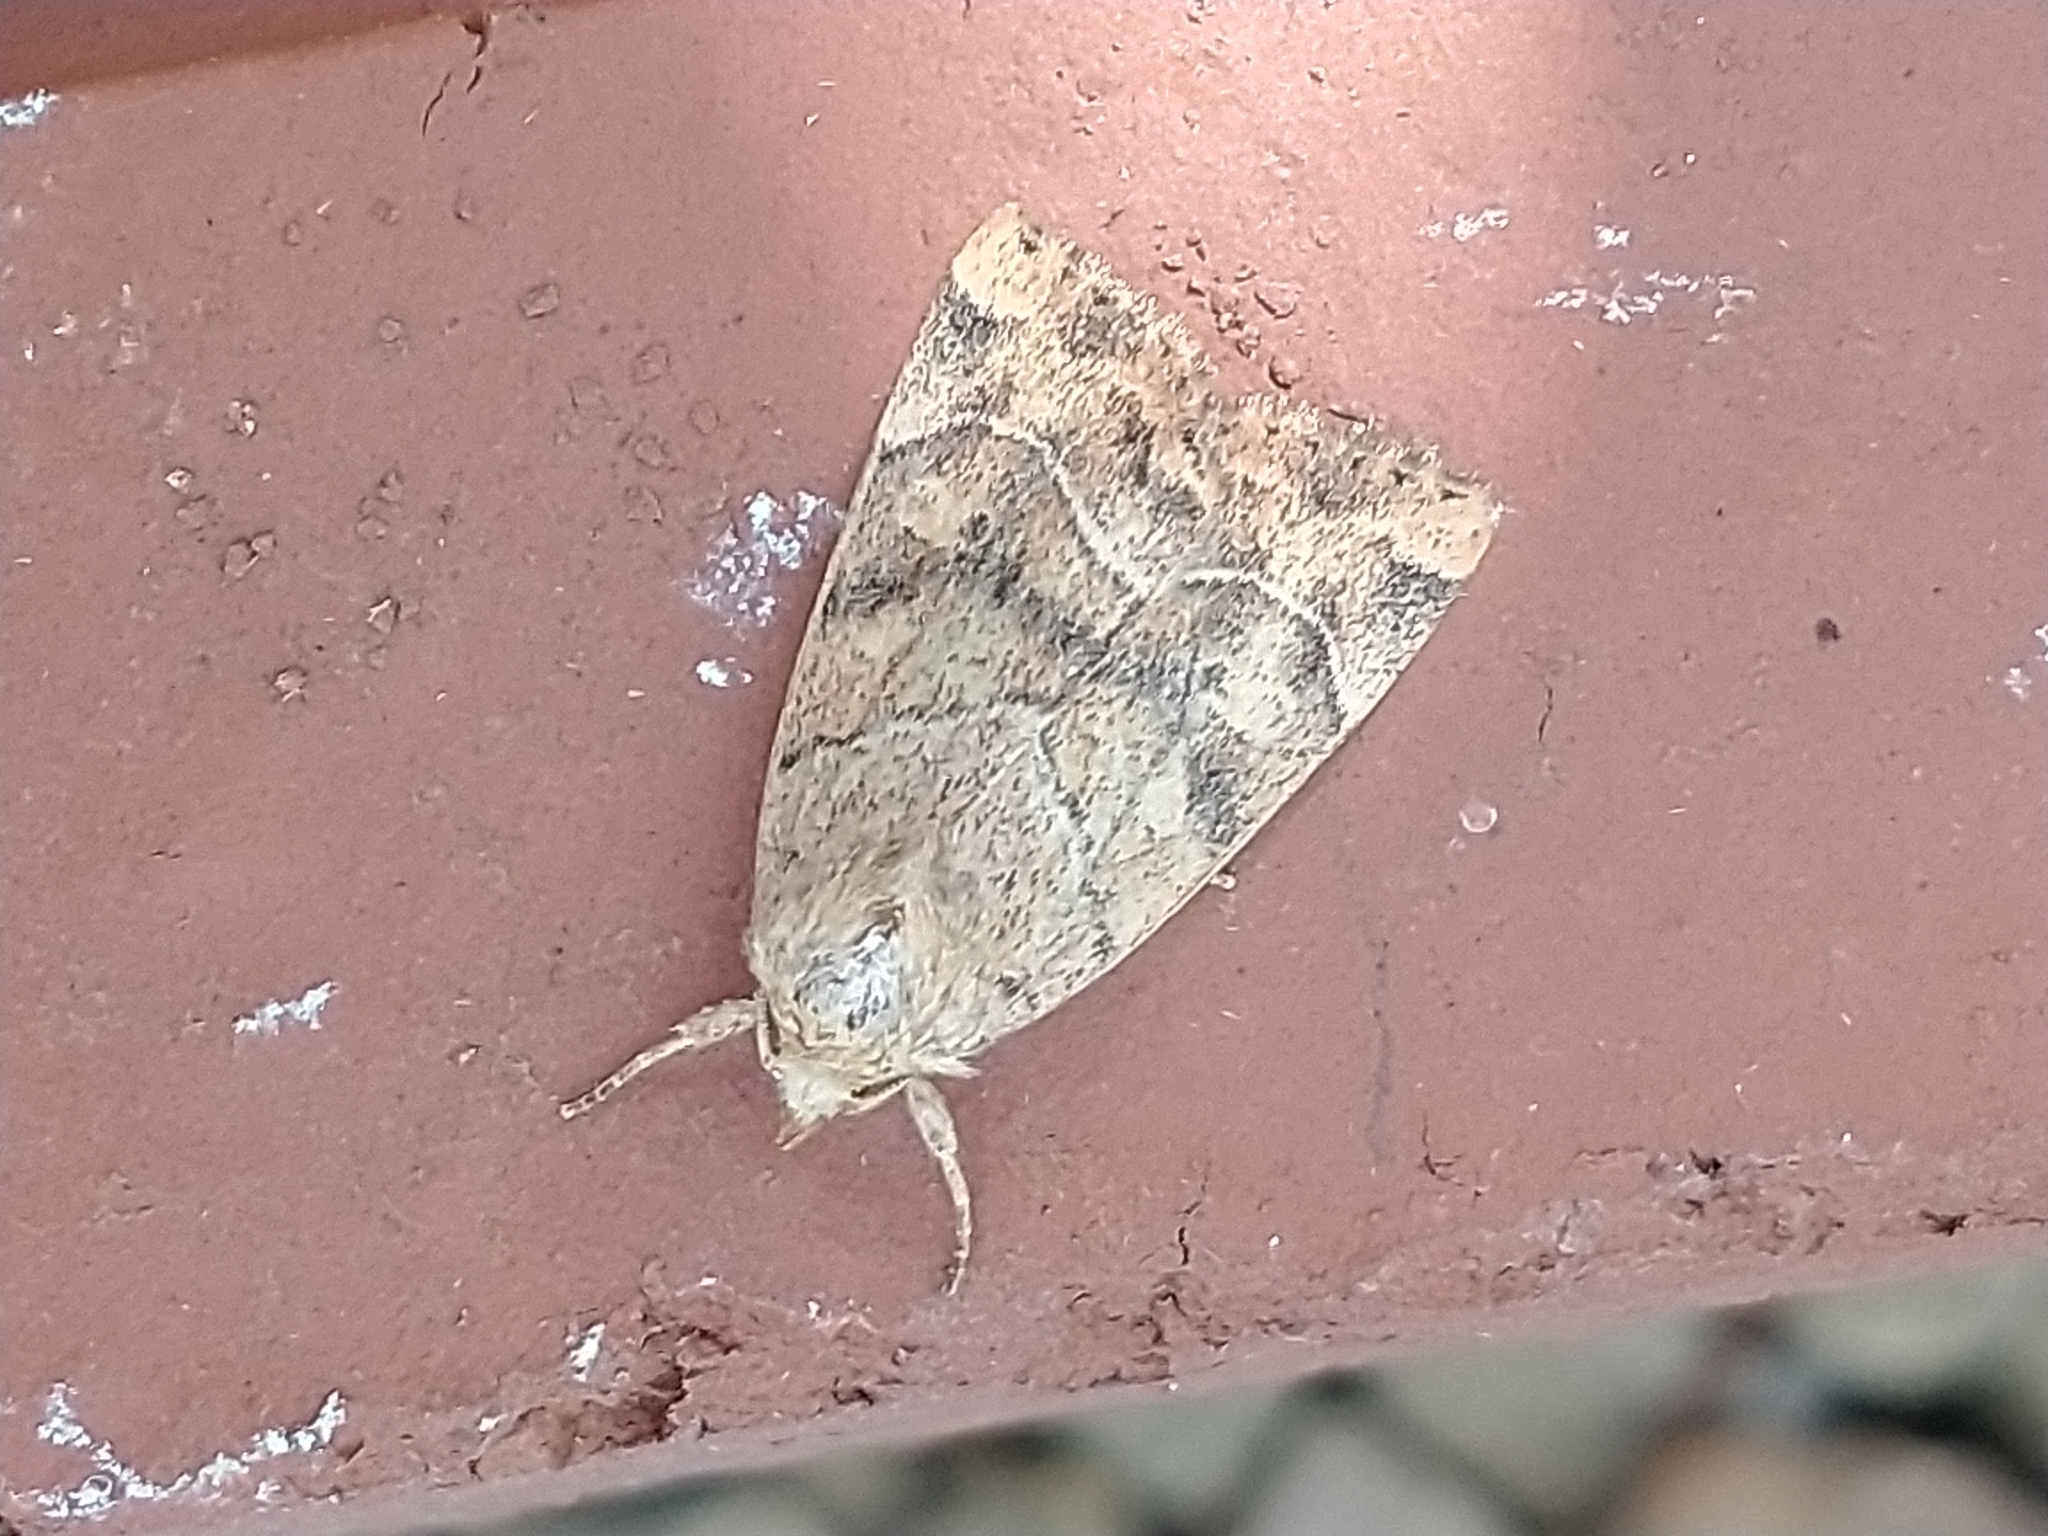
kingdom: Animalia
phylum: Arthropoda
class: Insecta
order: Lepidoptera
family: Noctuidae
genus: Cosmia
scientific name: Cosmia trapezina
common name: Dun-bar
